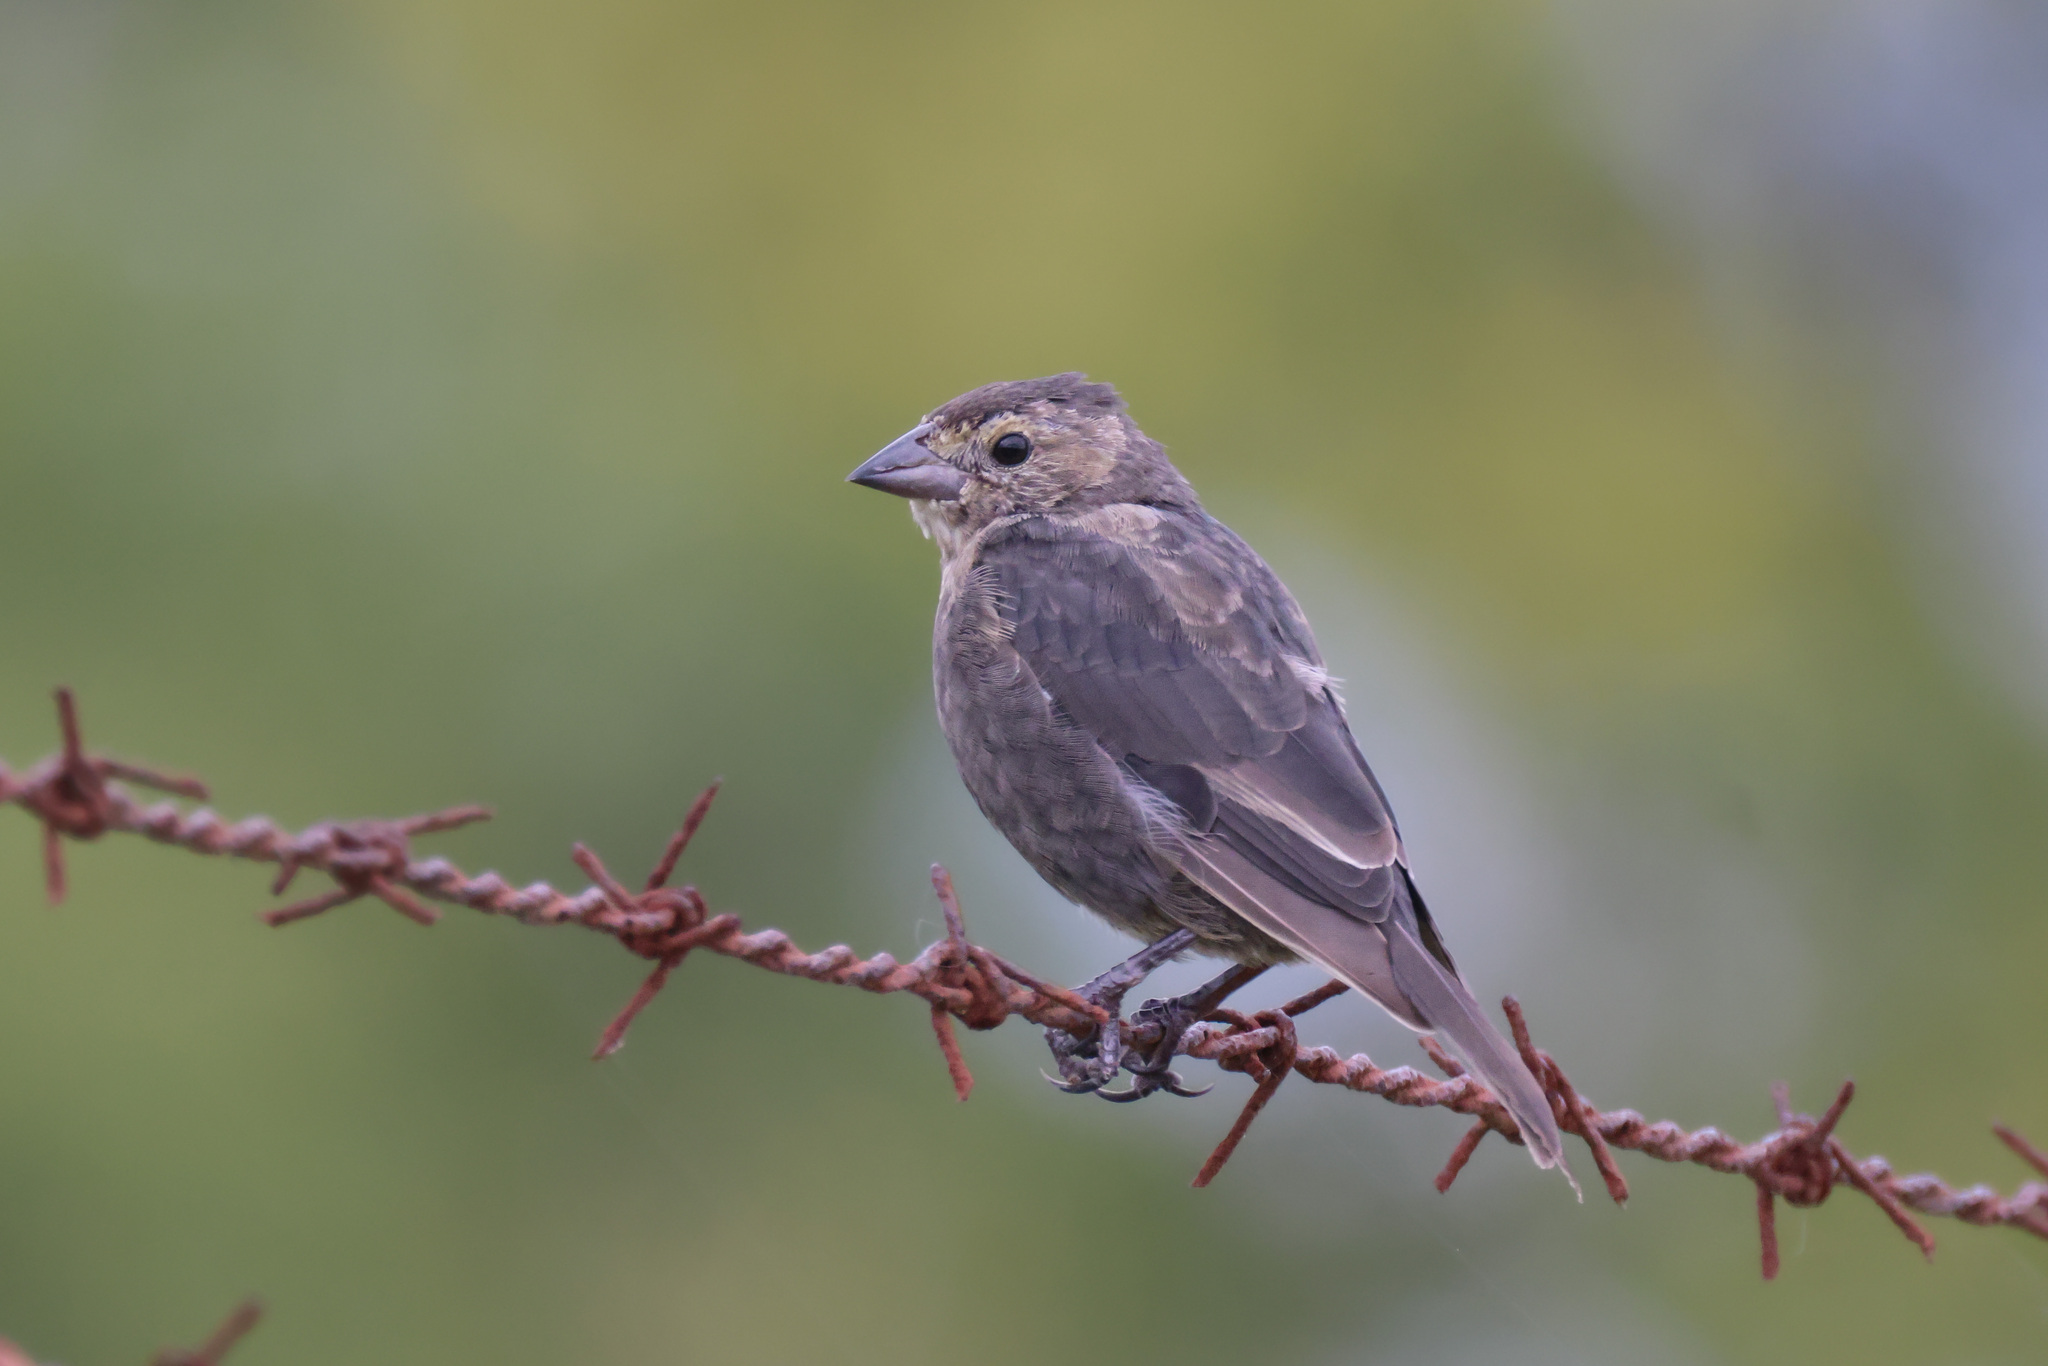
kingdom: Animalia
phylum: Chordata
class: Aves
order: Passeriformes
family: Icteridae
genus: Molothrus
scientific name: Molothrus ater
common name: Brown-headed cowbird
